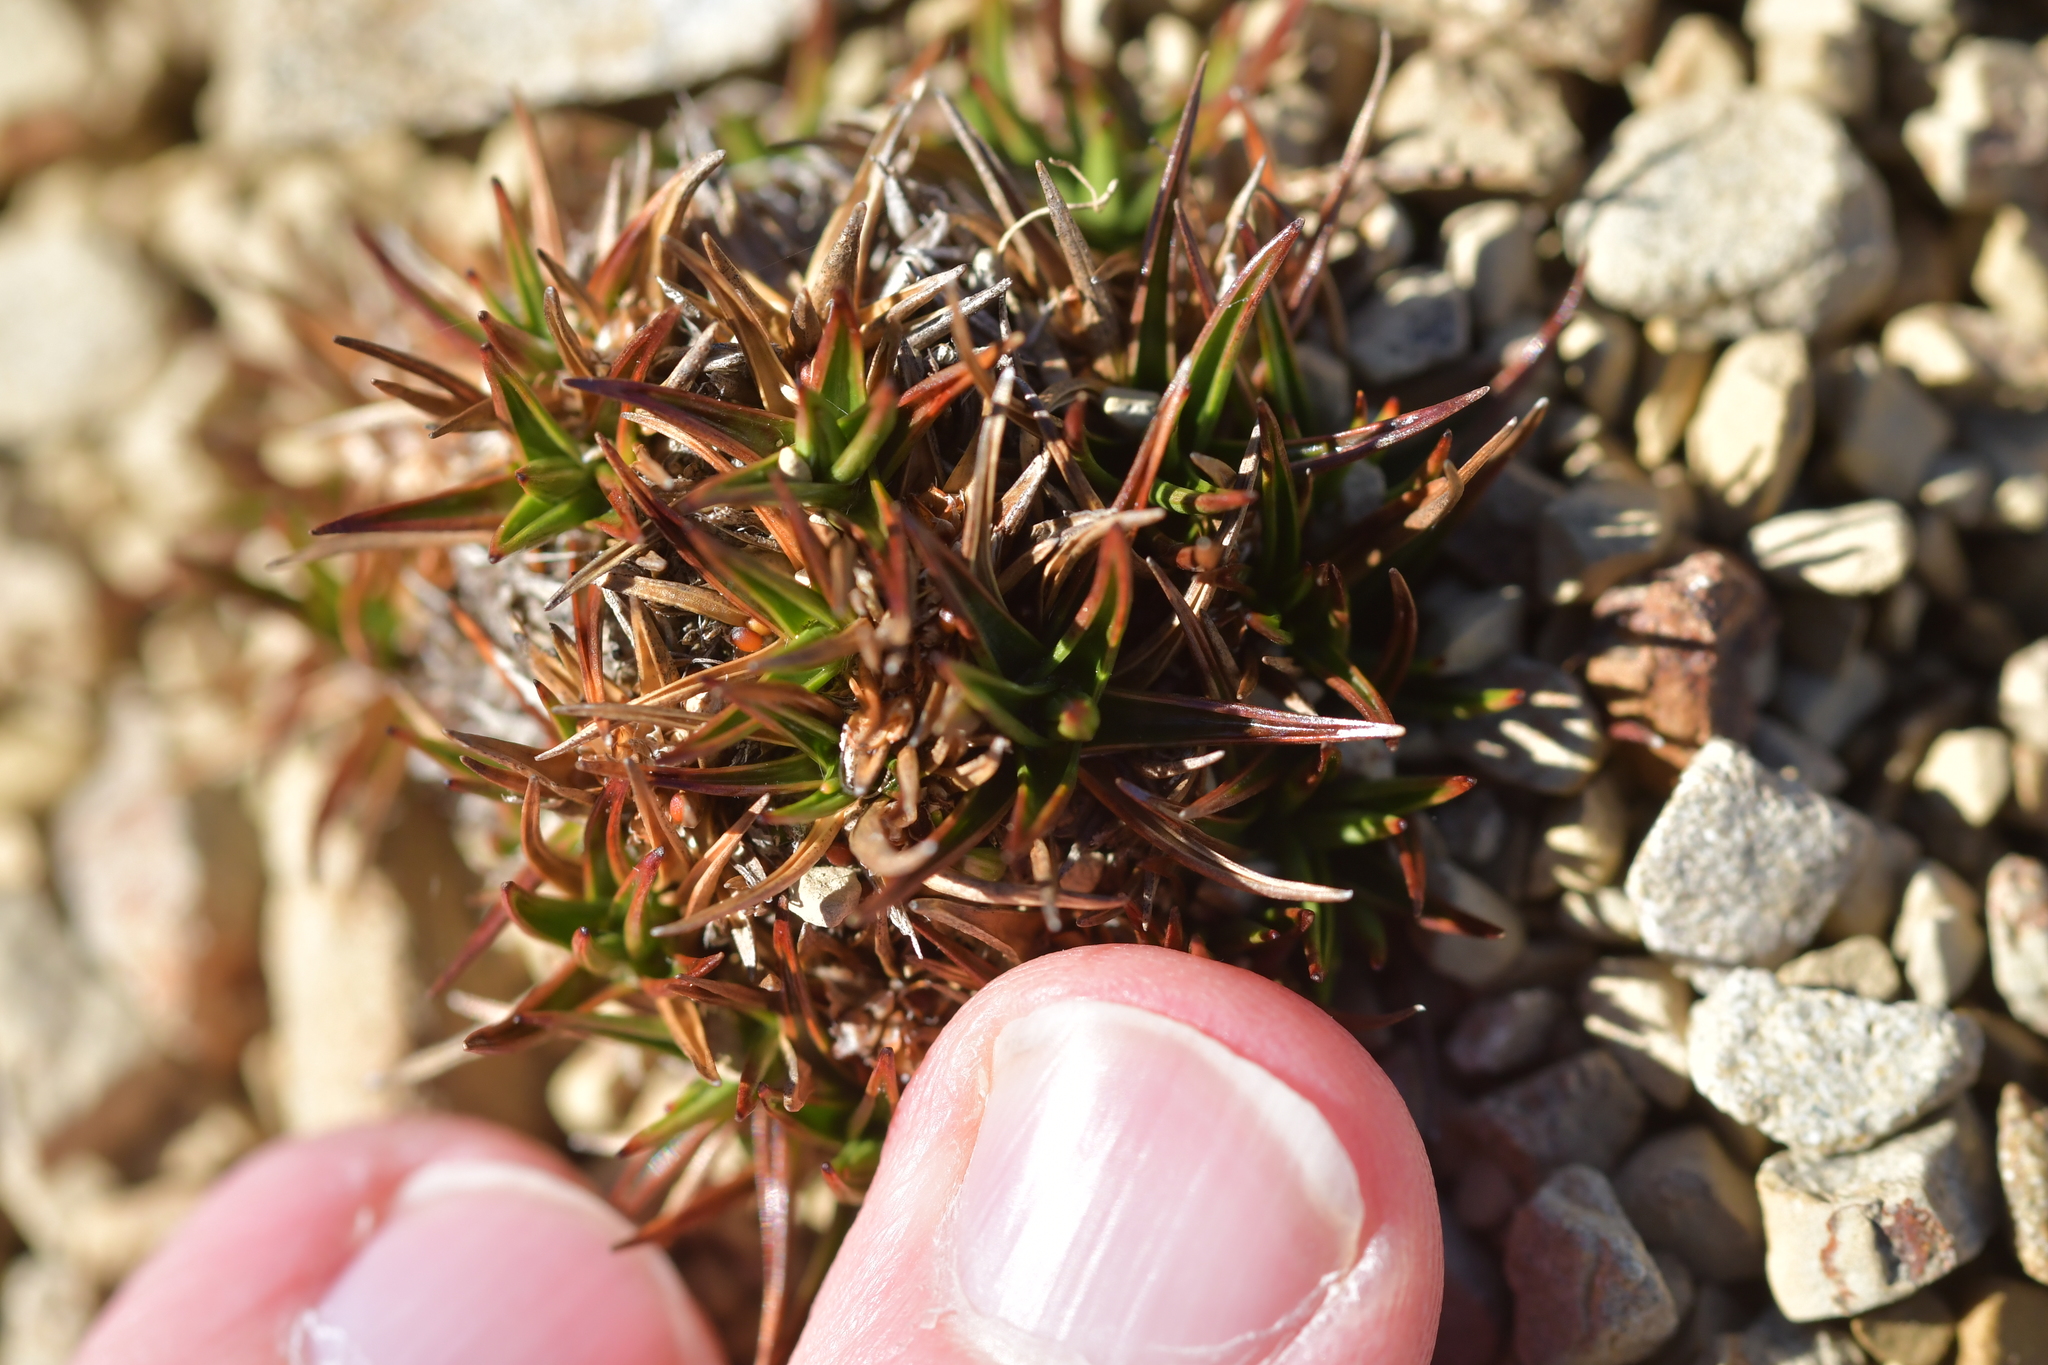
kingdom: Plantae
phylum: Tracheophyta
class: Liliopsida
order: Poales
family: Juncaceae
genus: Luzula
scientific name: Luzula colensoi
